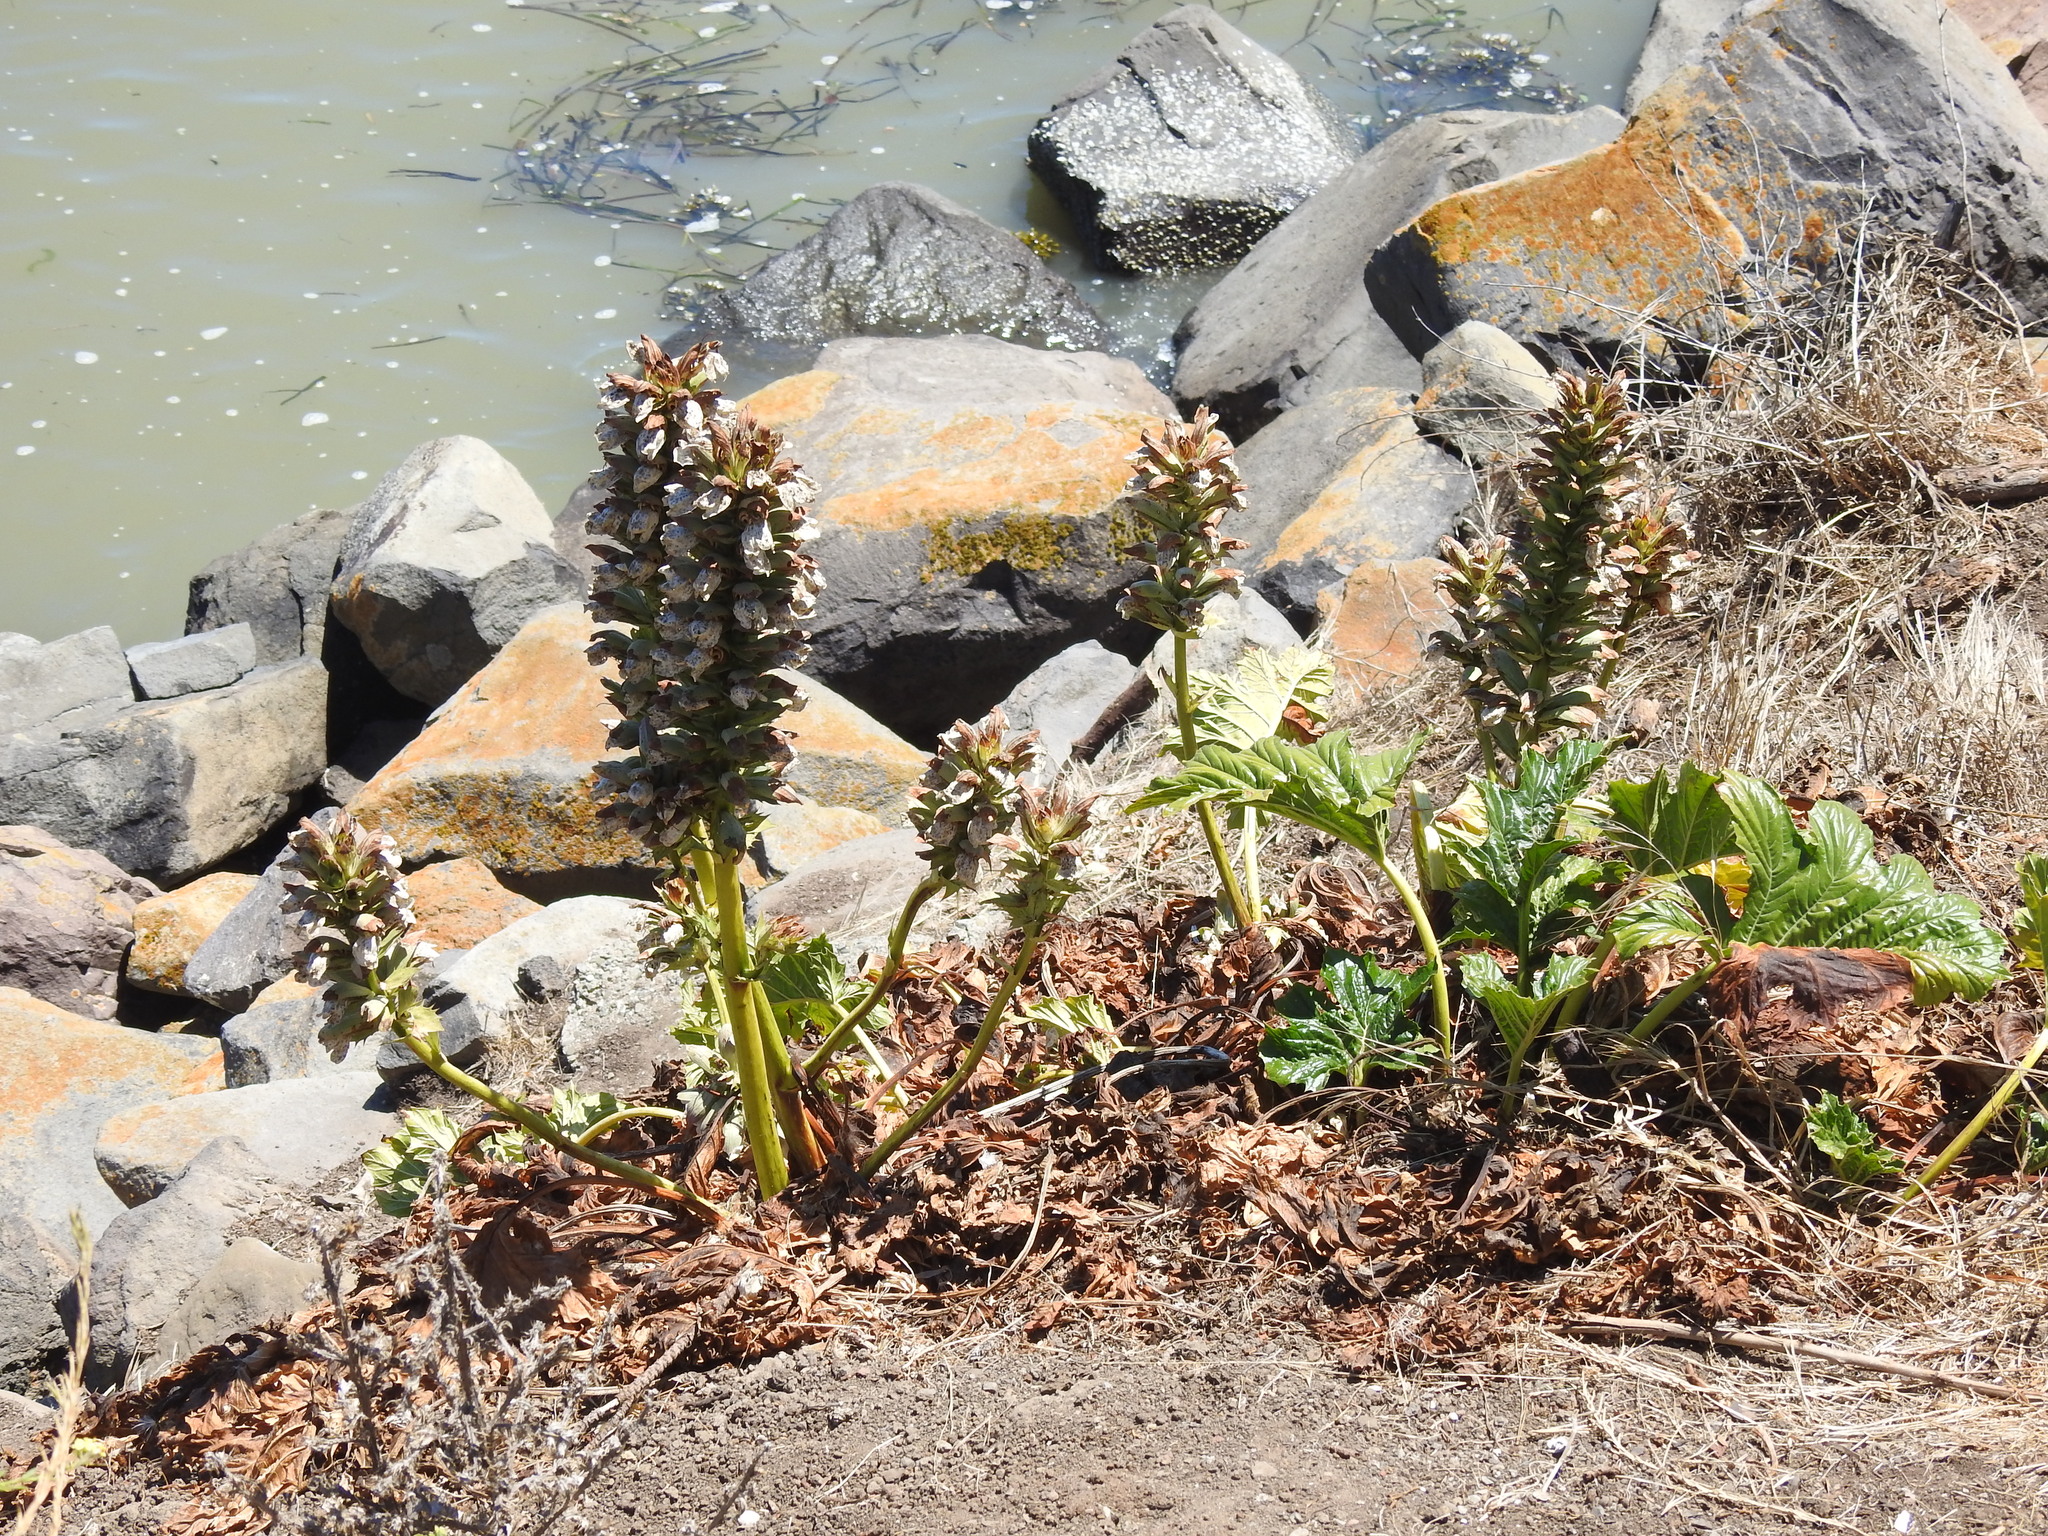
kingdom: Plantae
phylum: Tracheophyta
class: Magnoliopsida
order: Lamiales
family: Acanthaceae
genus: Acanthus
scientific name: Acanthus mollis
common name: Bear's-breech
